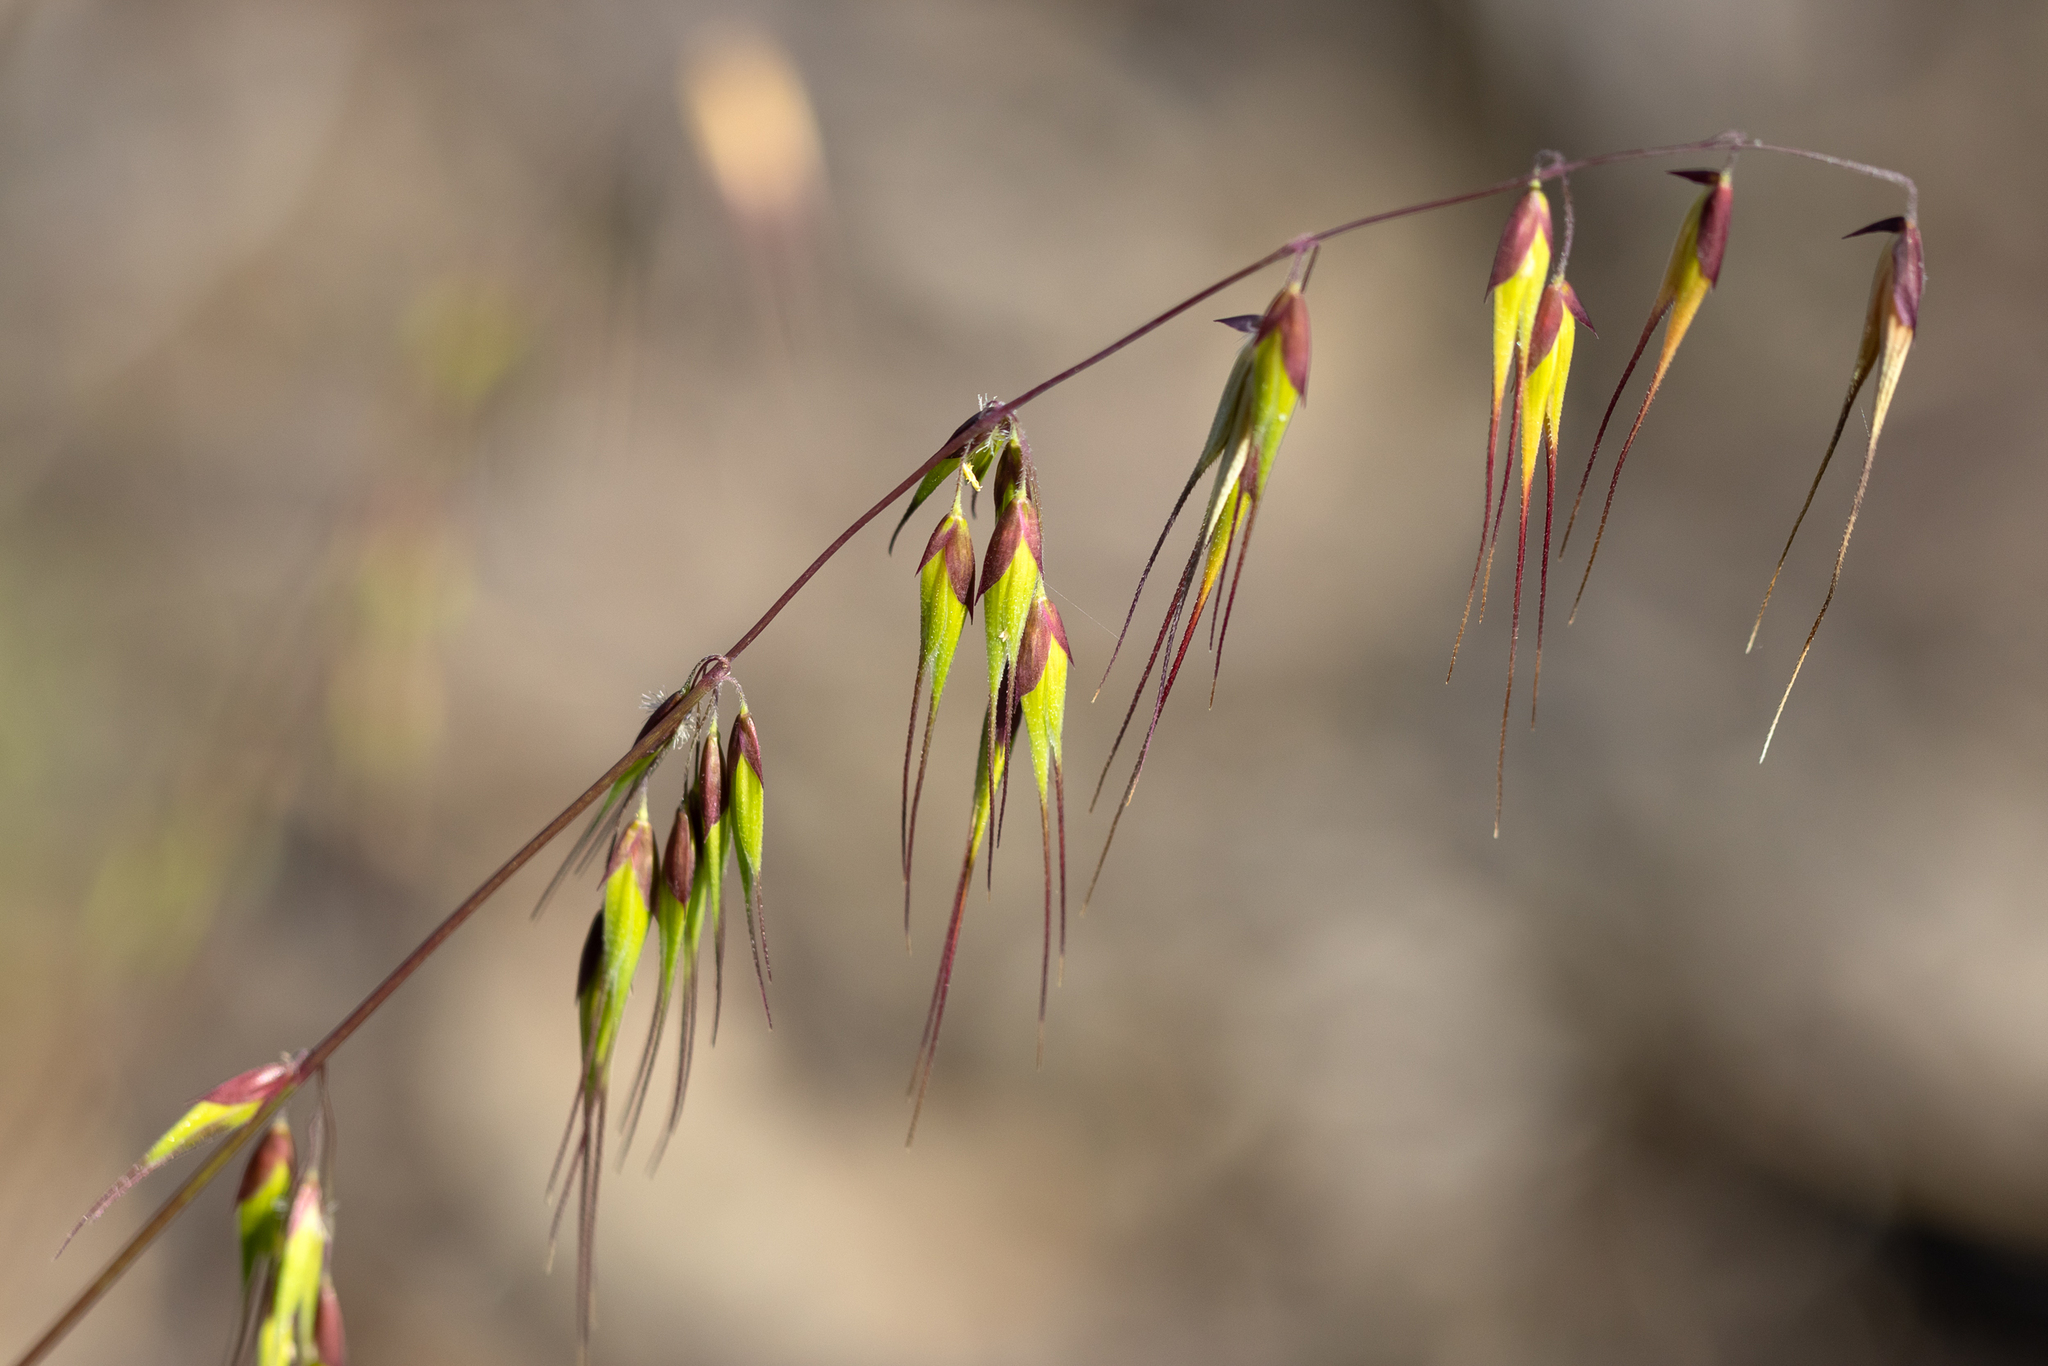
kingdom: Plantae
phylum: Tracheophyta
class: Liliopsida
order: Poales
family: Poaceae
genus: Ehrharta
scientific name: Ehrharta longiflora
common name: Longflowered veldtgrass
